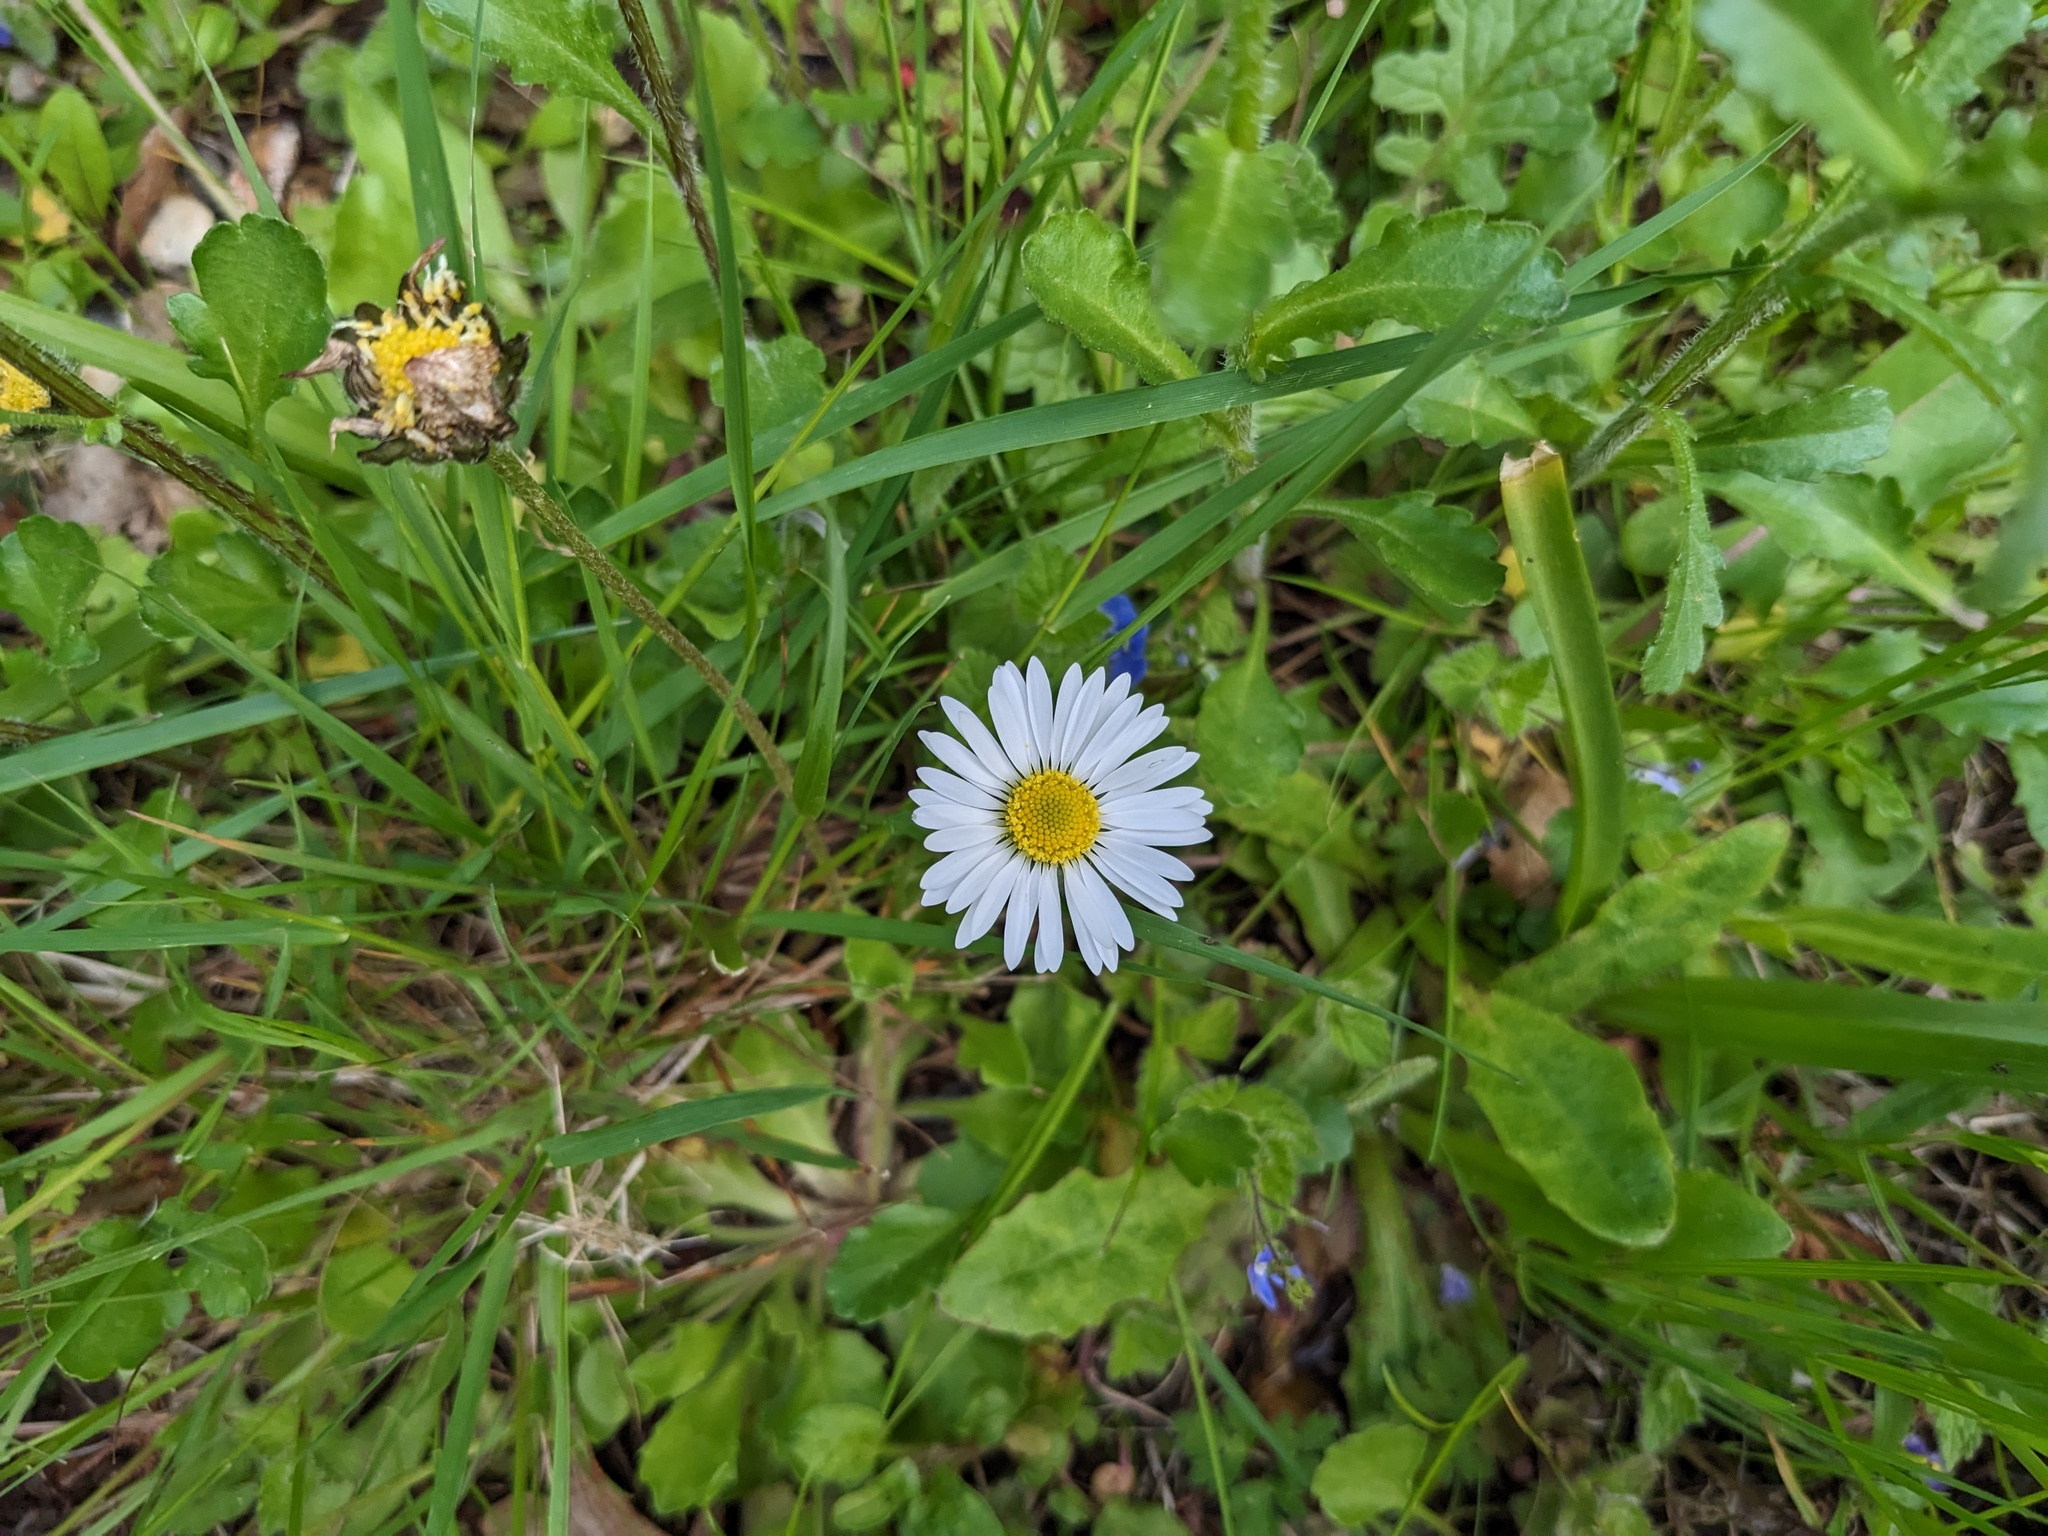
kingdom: Plantae
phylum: Tracheophyta
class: Magnoliopsida
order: Asterales
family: Asteraceae
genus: Bellis
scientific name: Bellis perennis
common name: Lawndaisy
